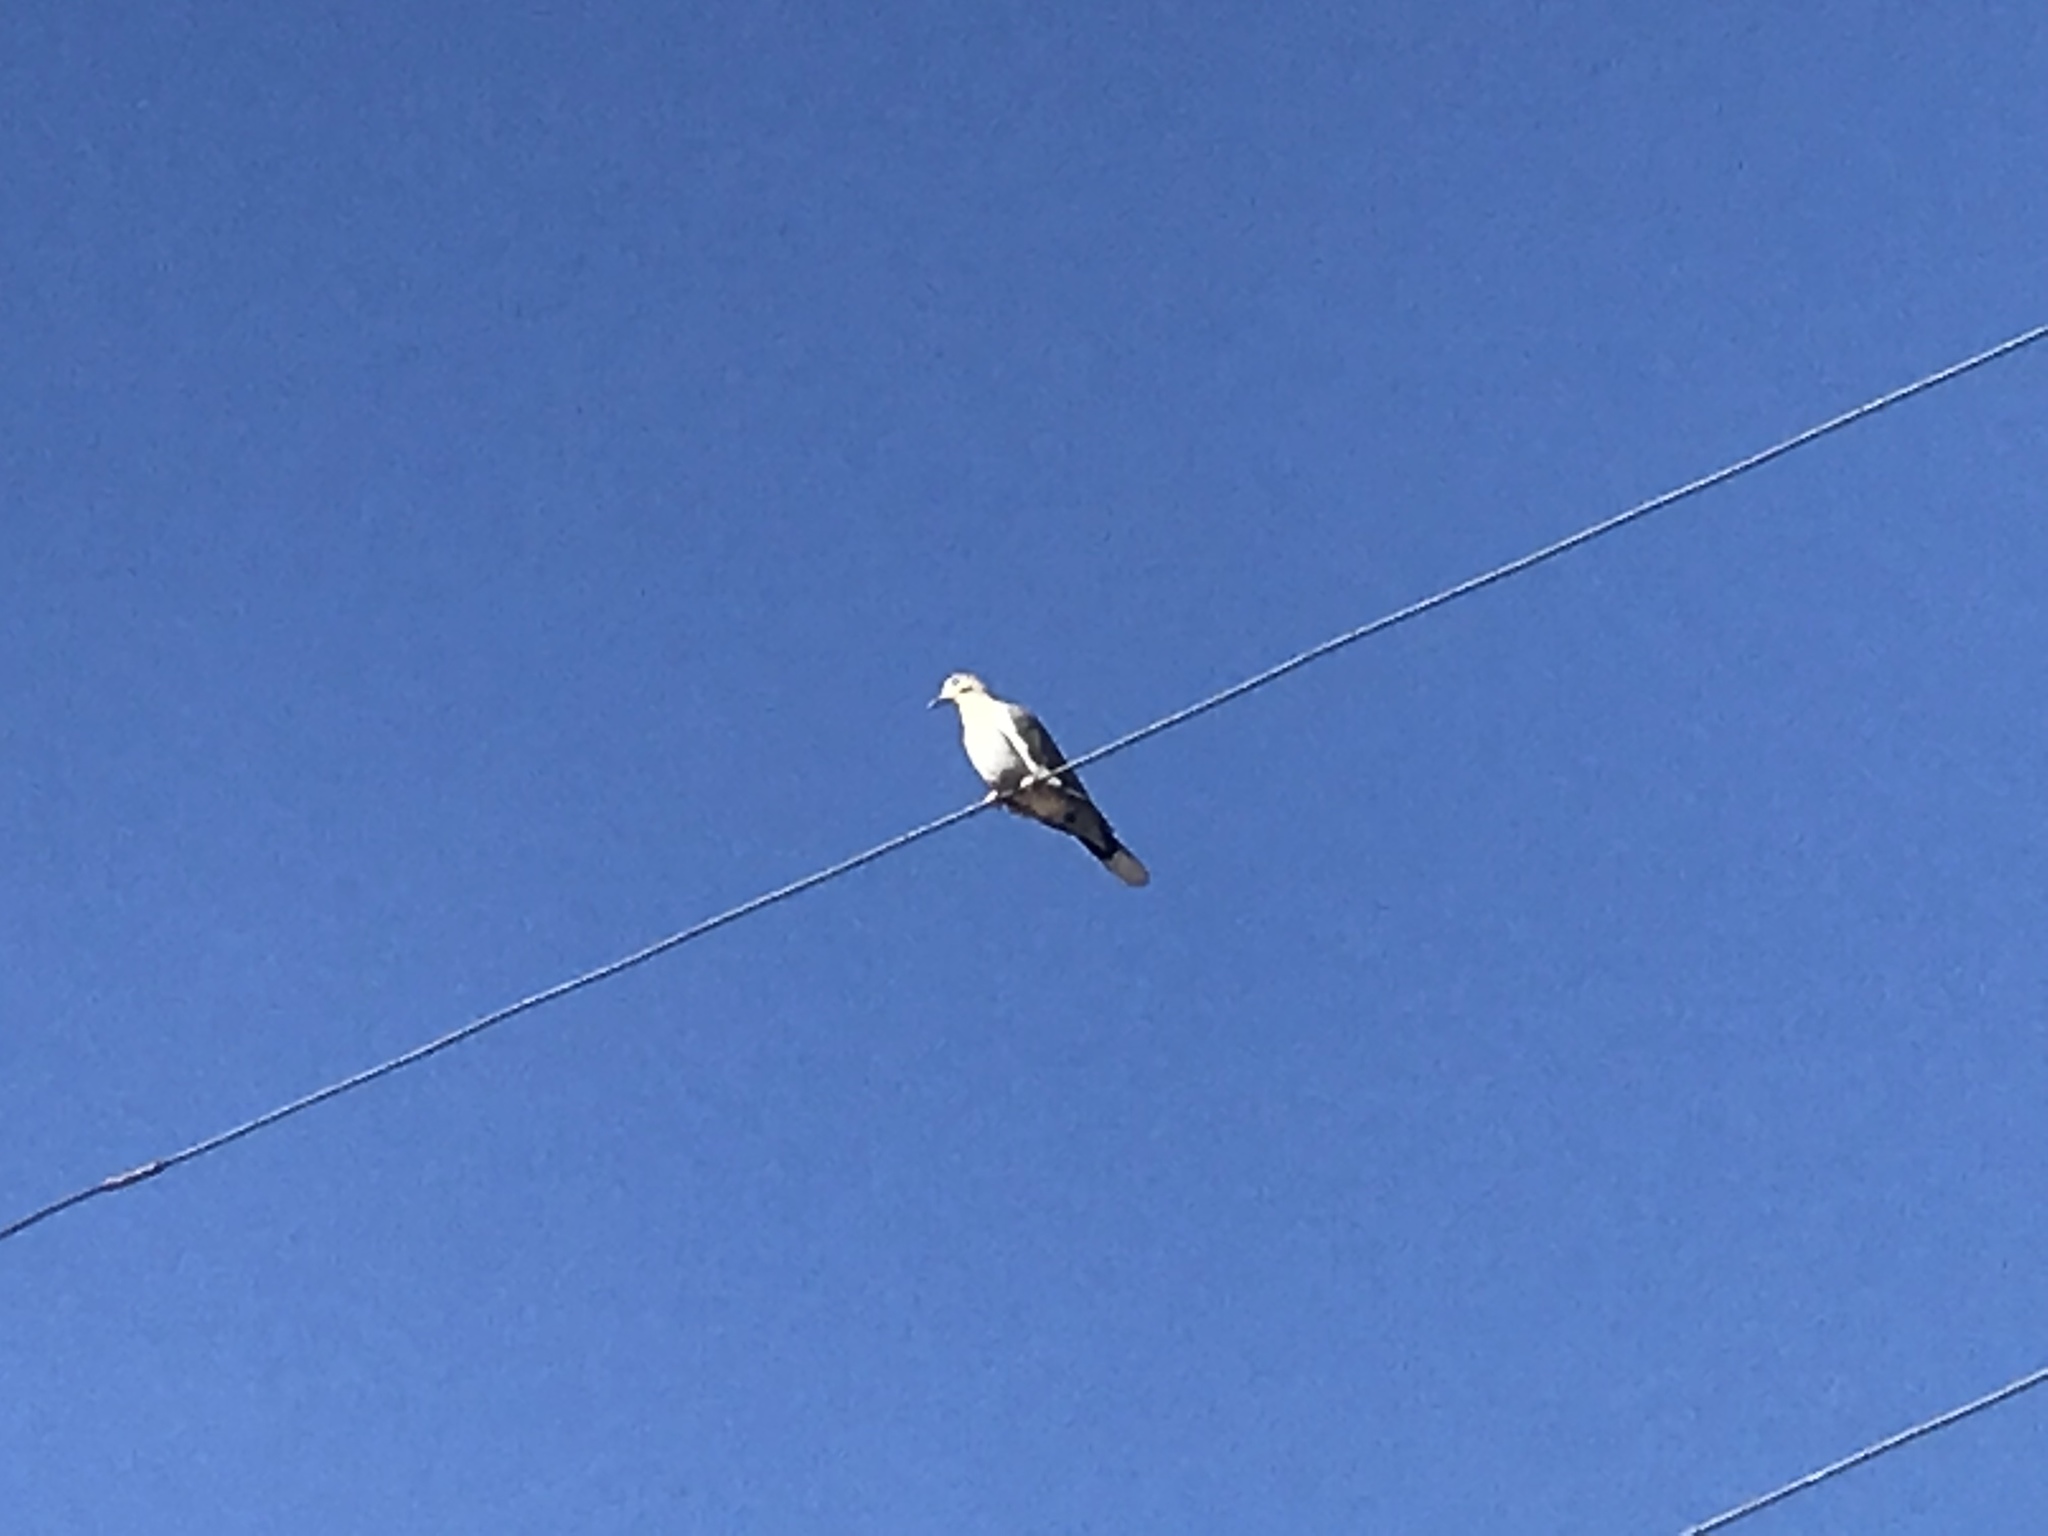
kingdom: Animalia
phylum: Chordata
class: Aves
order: Columbiformes
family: Columbidae
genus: Zenaida
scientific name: Zenaida asiatica
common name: White-winged dove
